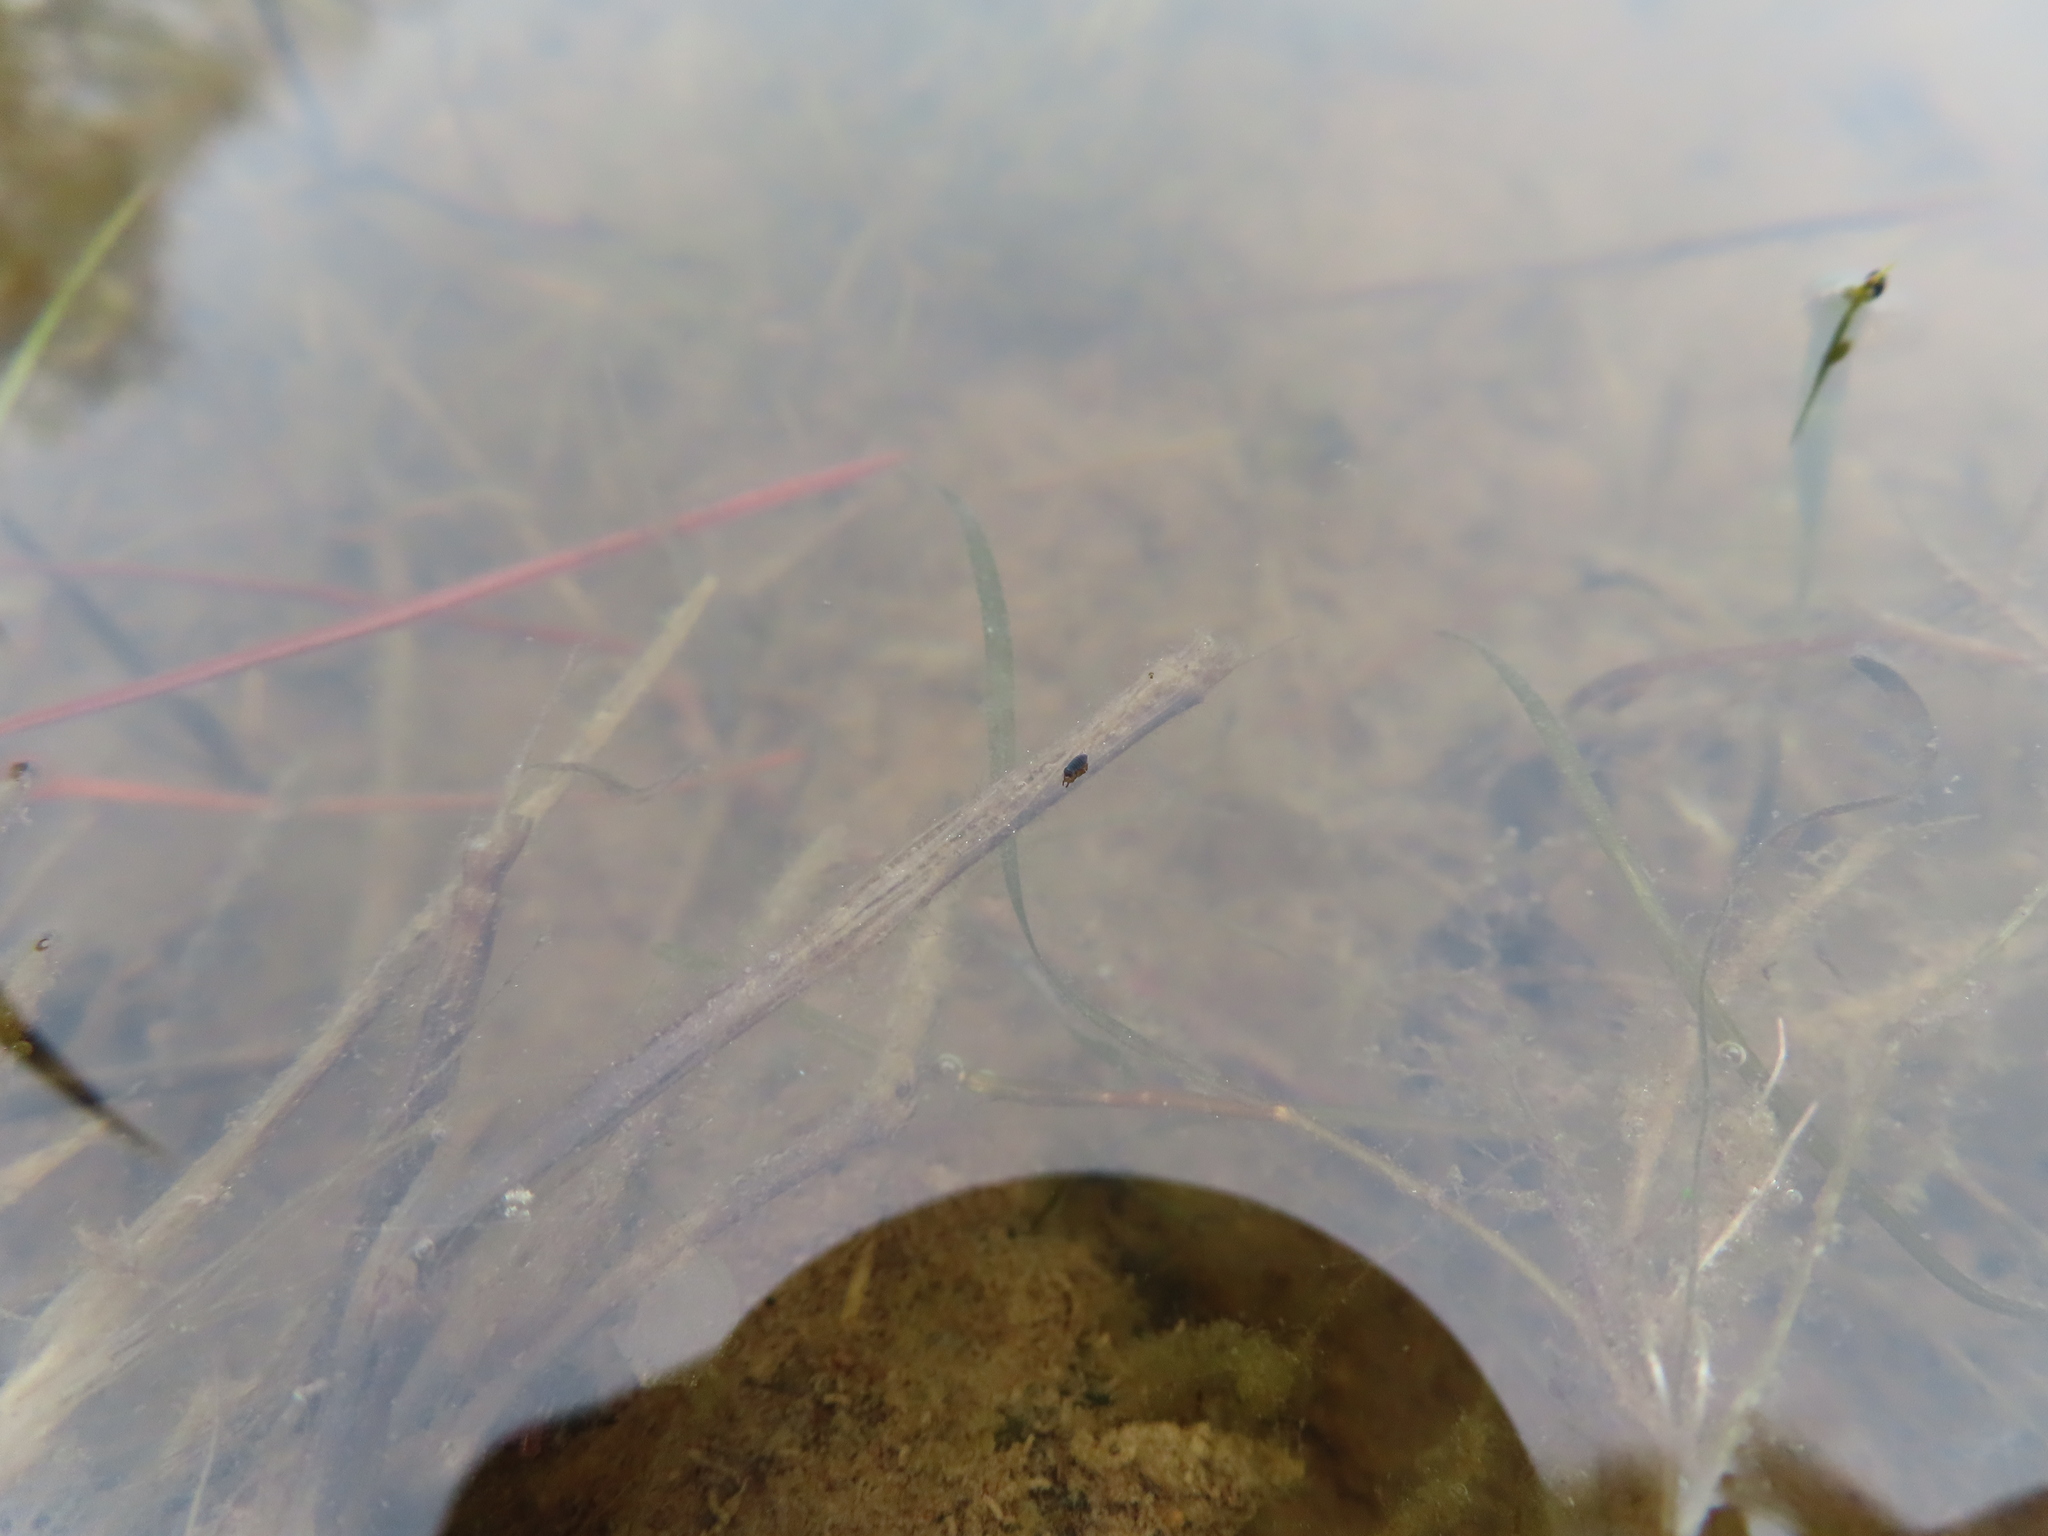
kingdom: Animalia
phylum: Arthropoda
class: Collembola
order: Poduromorpha
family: Poduridae
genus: Podura
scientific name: Podura aquatica
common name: Water springtail
